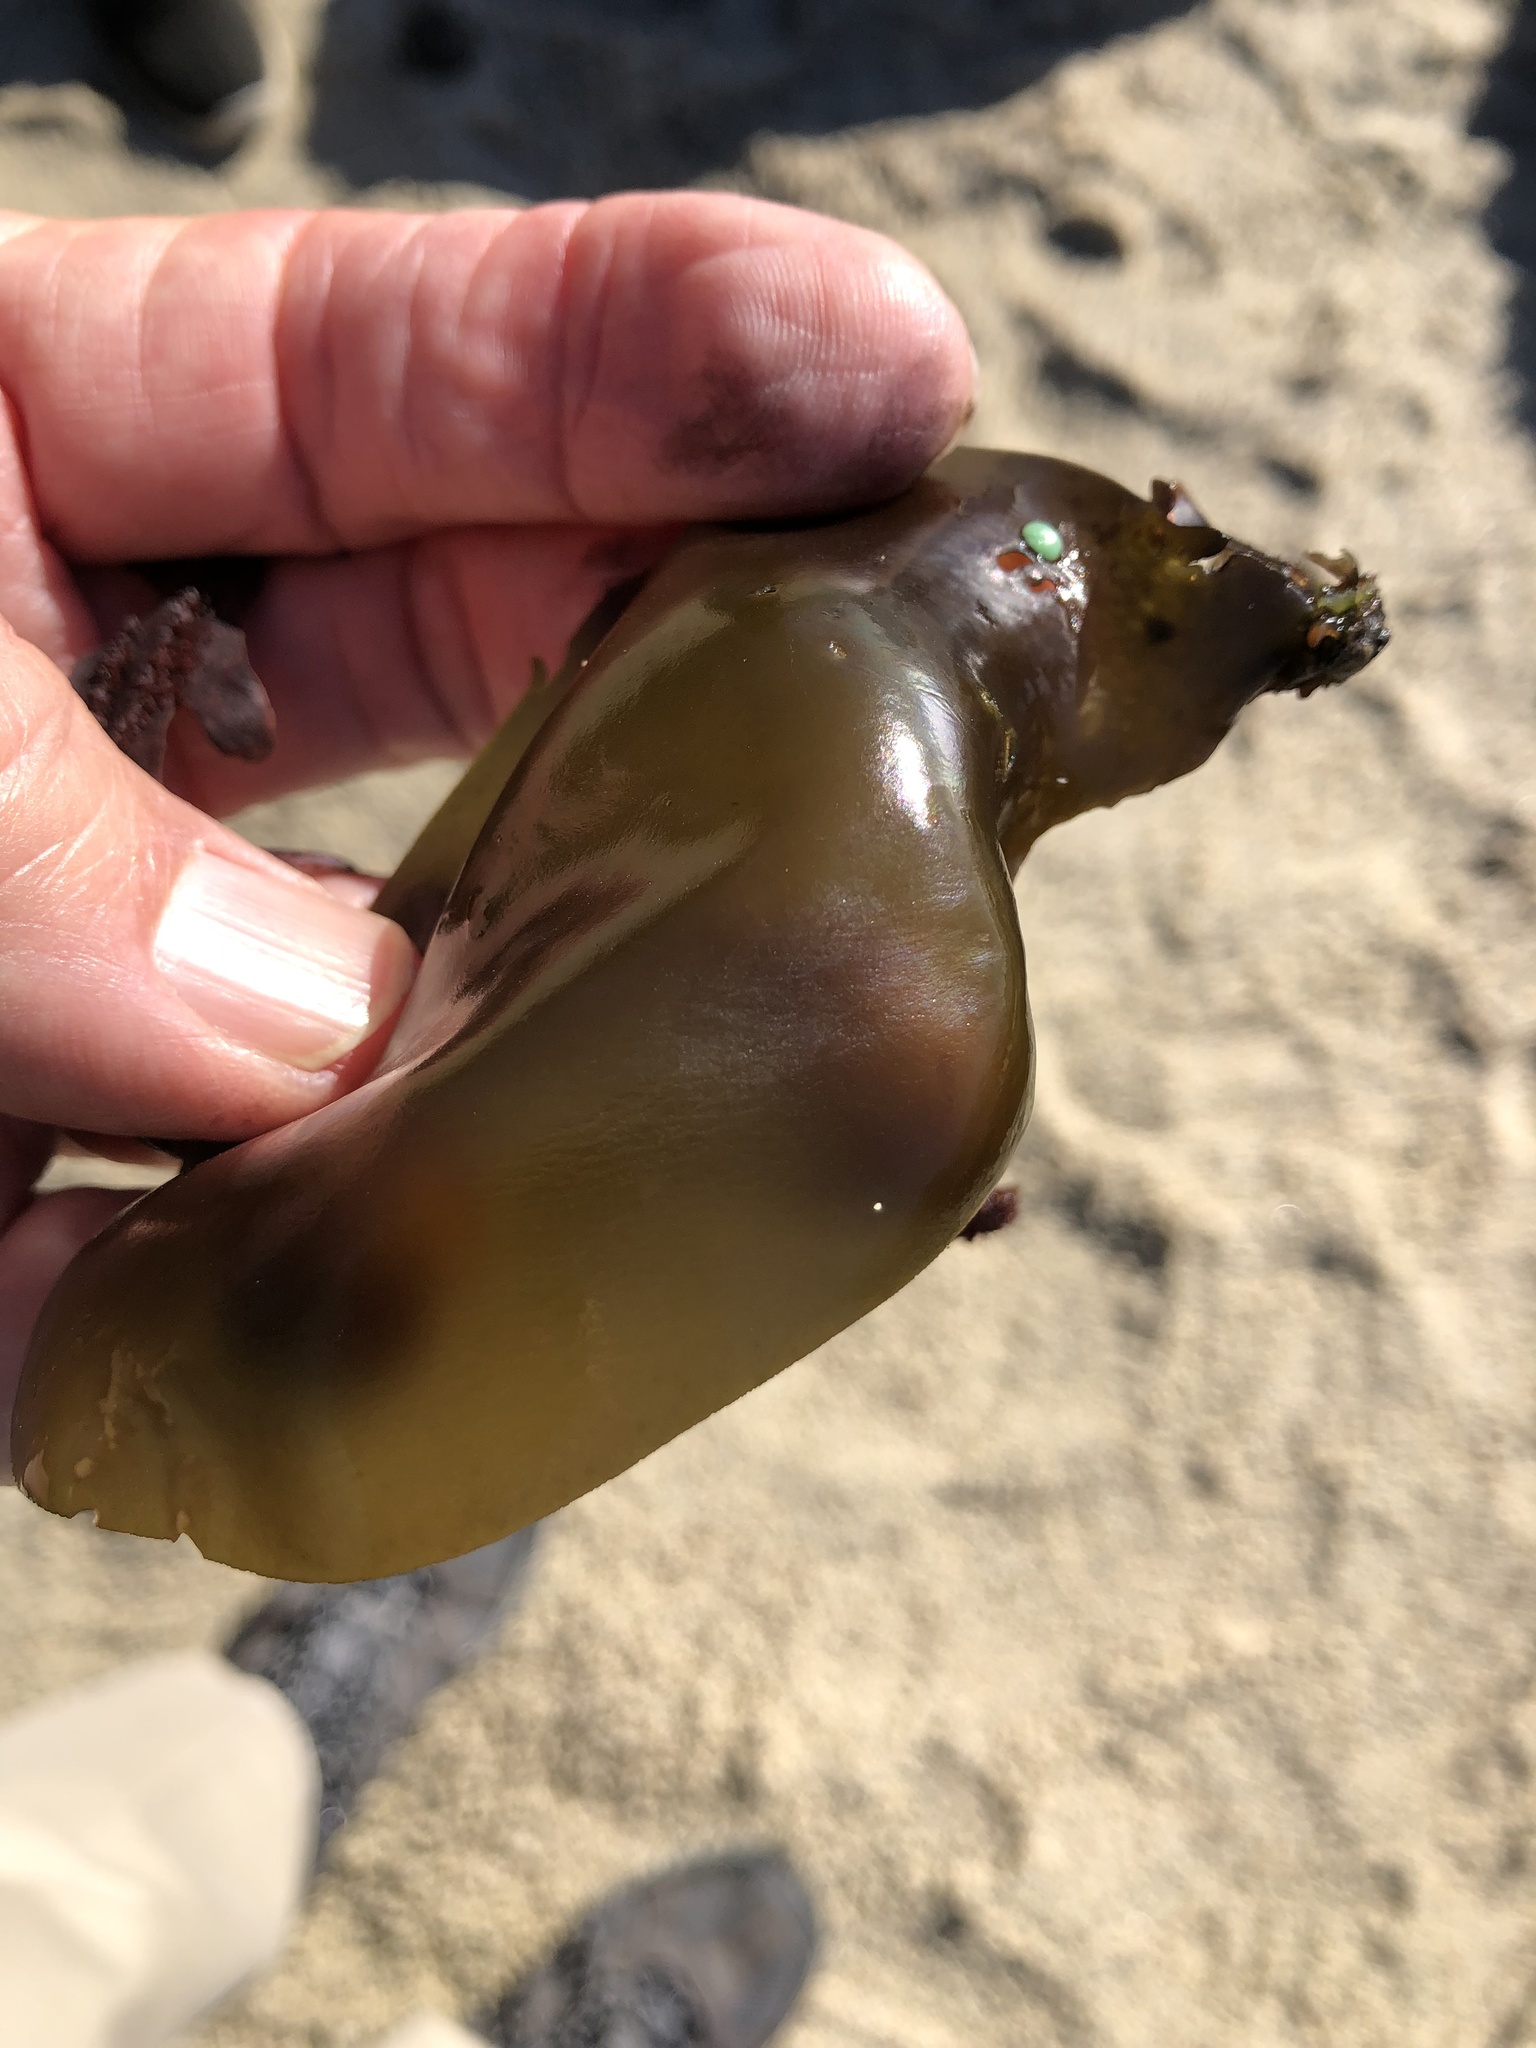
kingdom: Plantae
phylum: Rhodophyta
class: Florideophyceae
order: Gigartinales
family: Gigartinaceae
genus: Mazzaella
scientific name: Mazzaella flaccida
